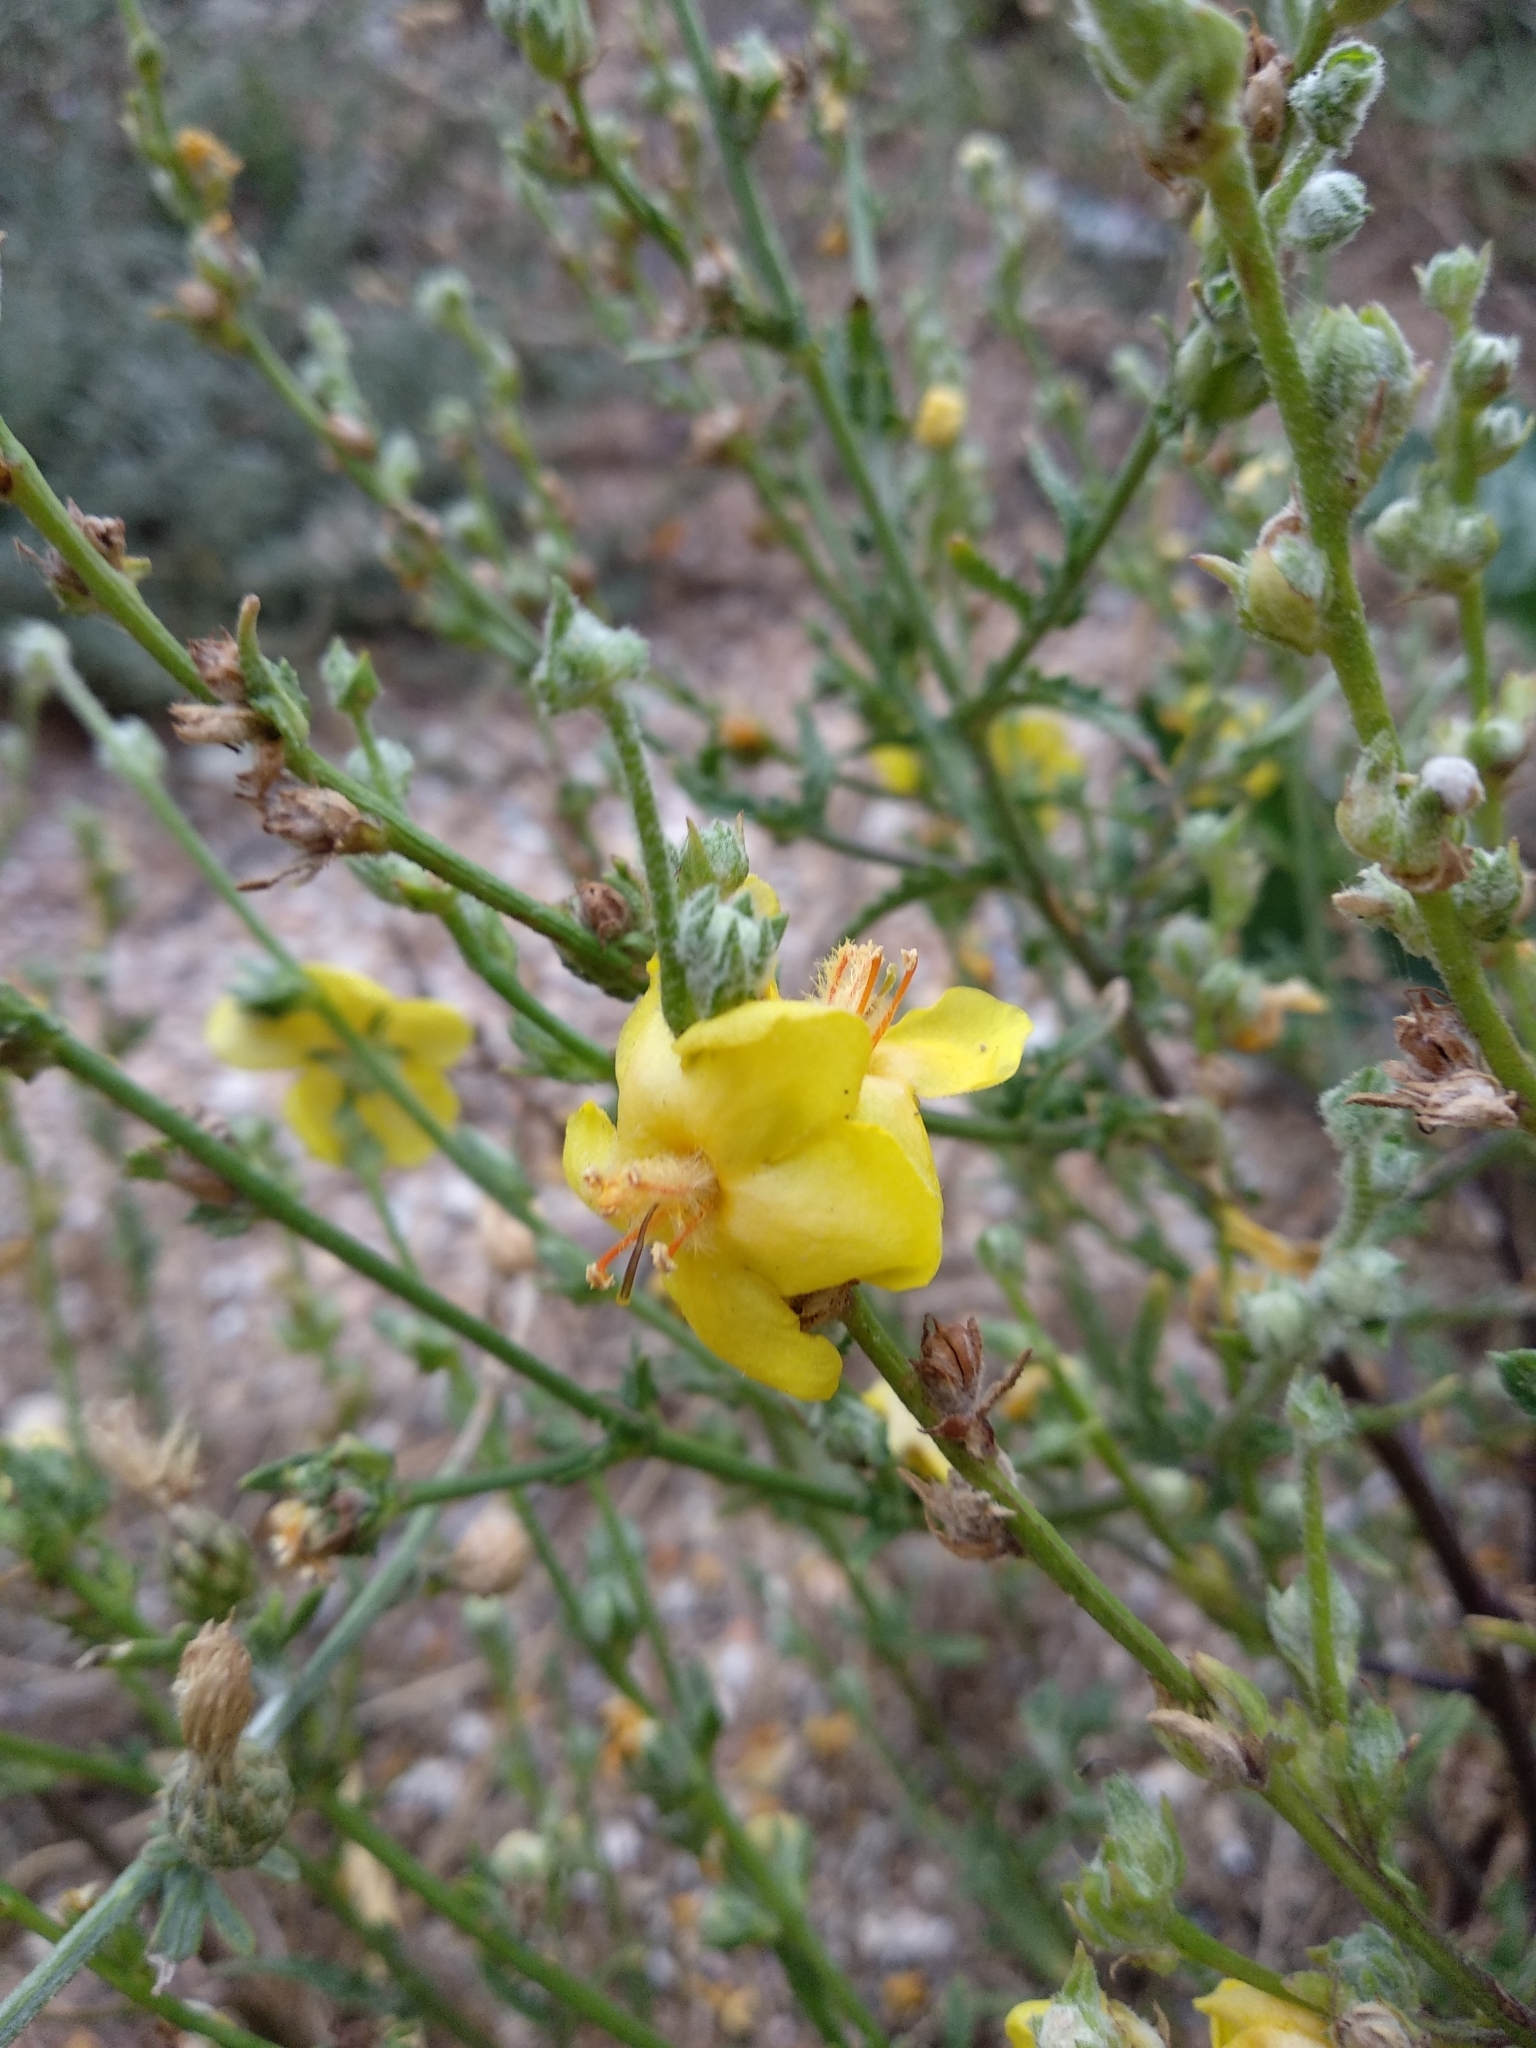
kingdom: Plantae
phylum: Tracheophyta
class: Magnoliopsida
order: Lamiales
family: Scrophulariaceae
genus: Verbascum
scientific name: Verbascum pinnatifidum
